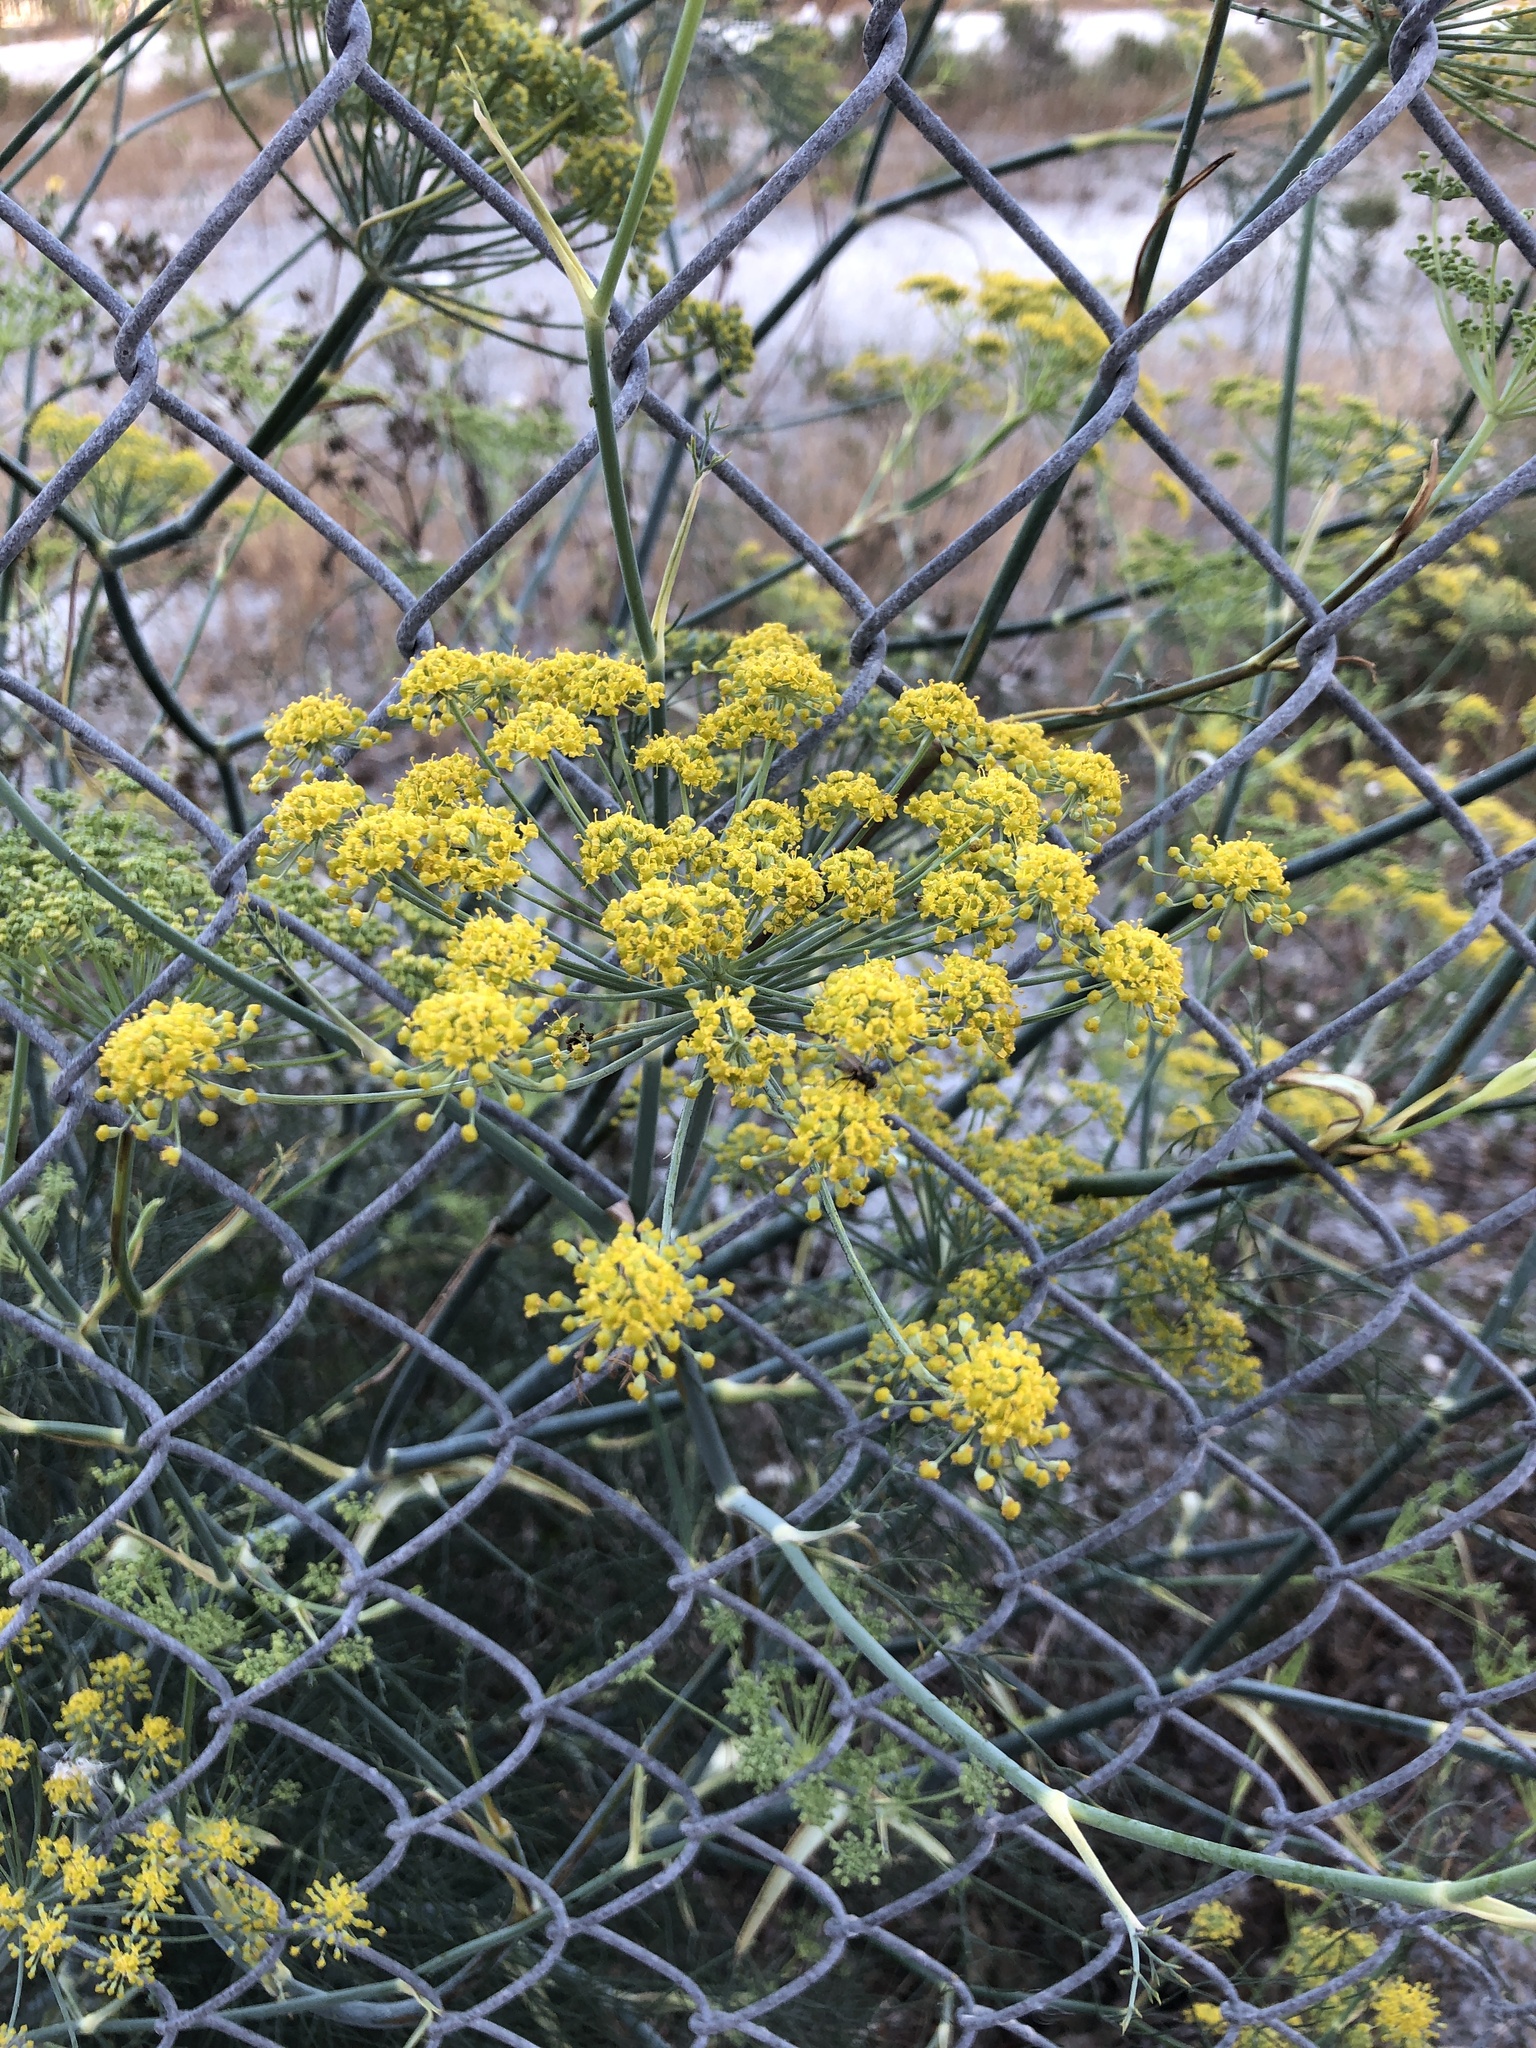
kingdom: Plantae
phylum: Tracheophyta
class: Magnoliopsida
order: Apiales
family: Apiaceae
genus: Foeniculum
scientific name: Foeniculum vulgare
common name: Fennel
